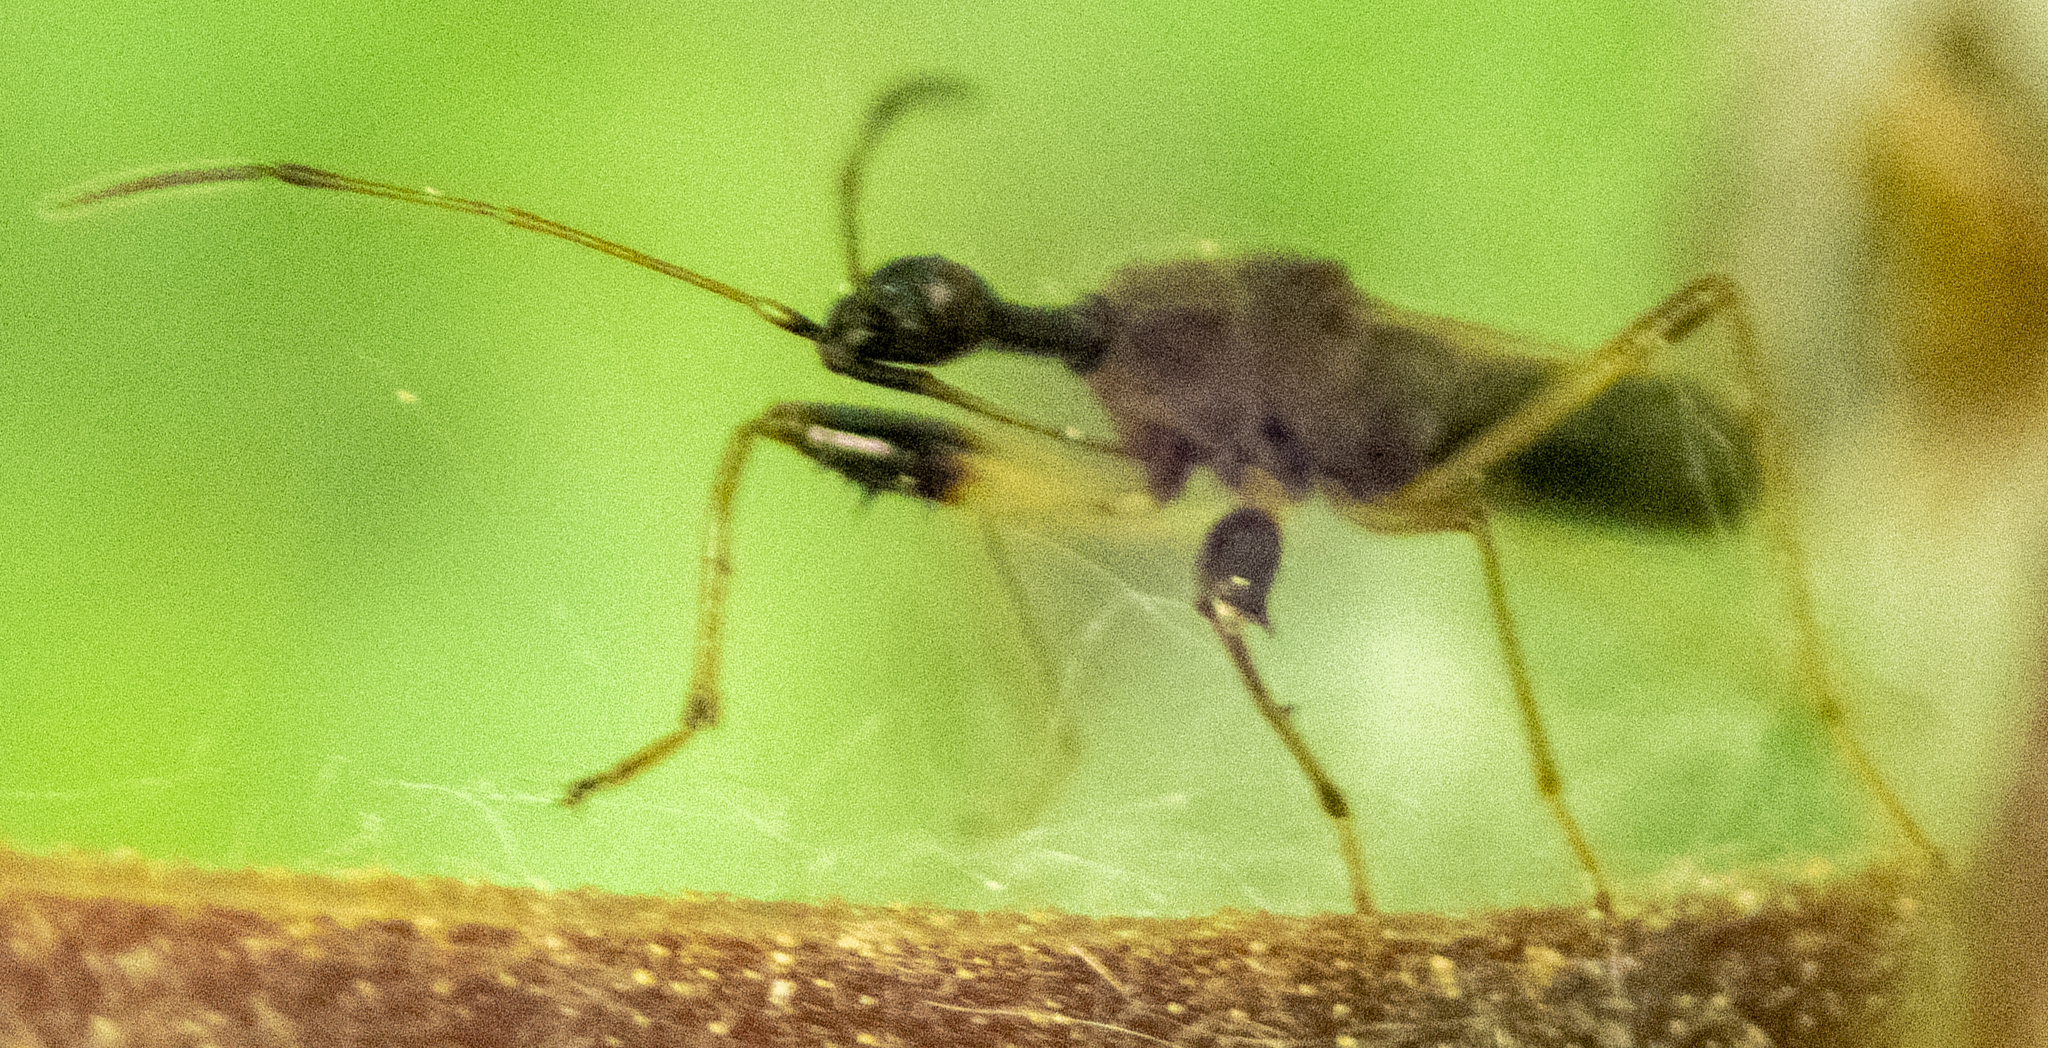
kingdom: Animalia
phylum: Arthropoda
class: Insecta
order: Hemiptera
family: Rhyparochromidae
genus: Myodocha
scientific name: Myodocha serripes
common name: Long-necked seed bug
